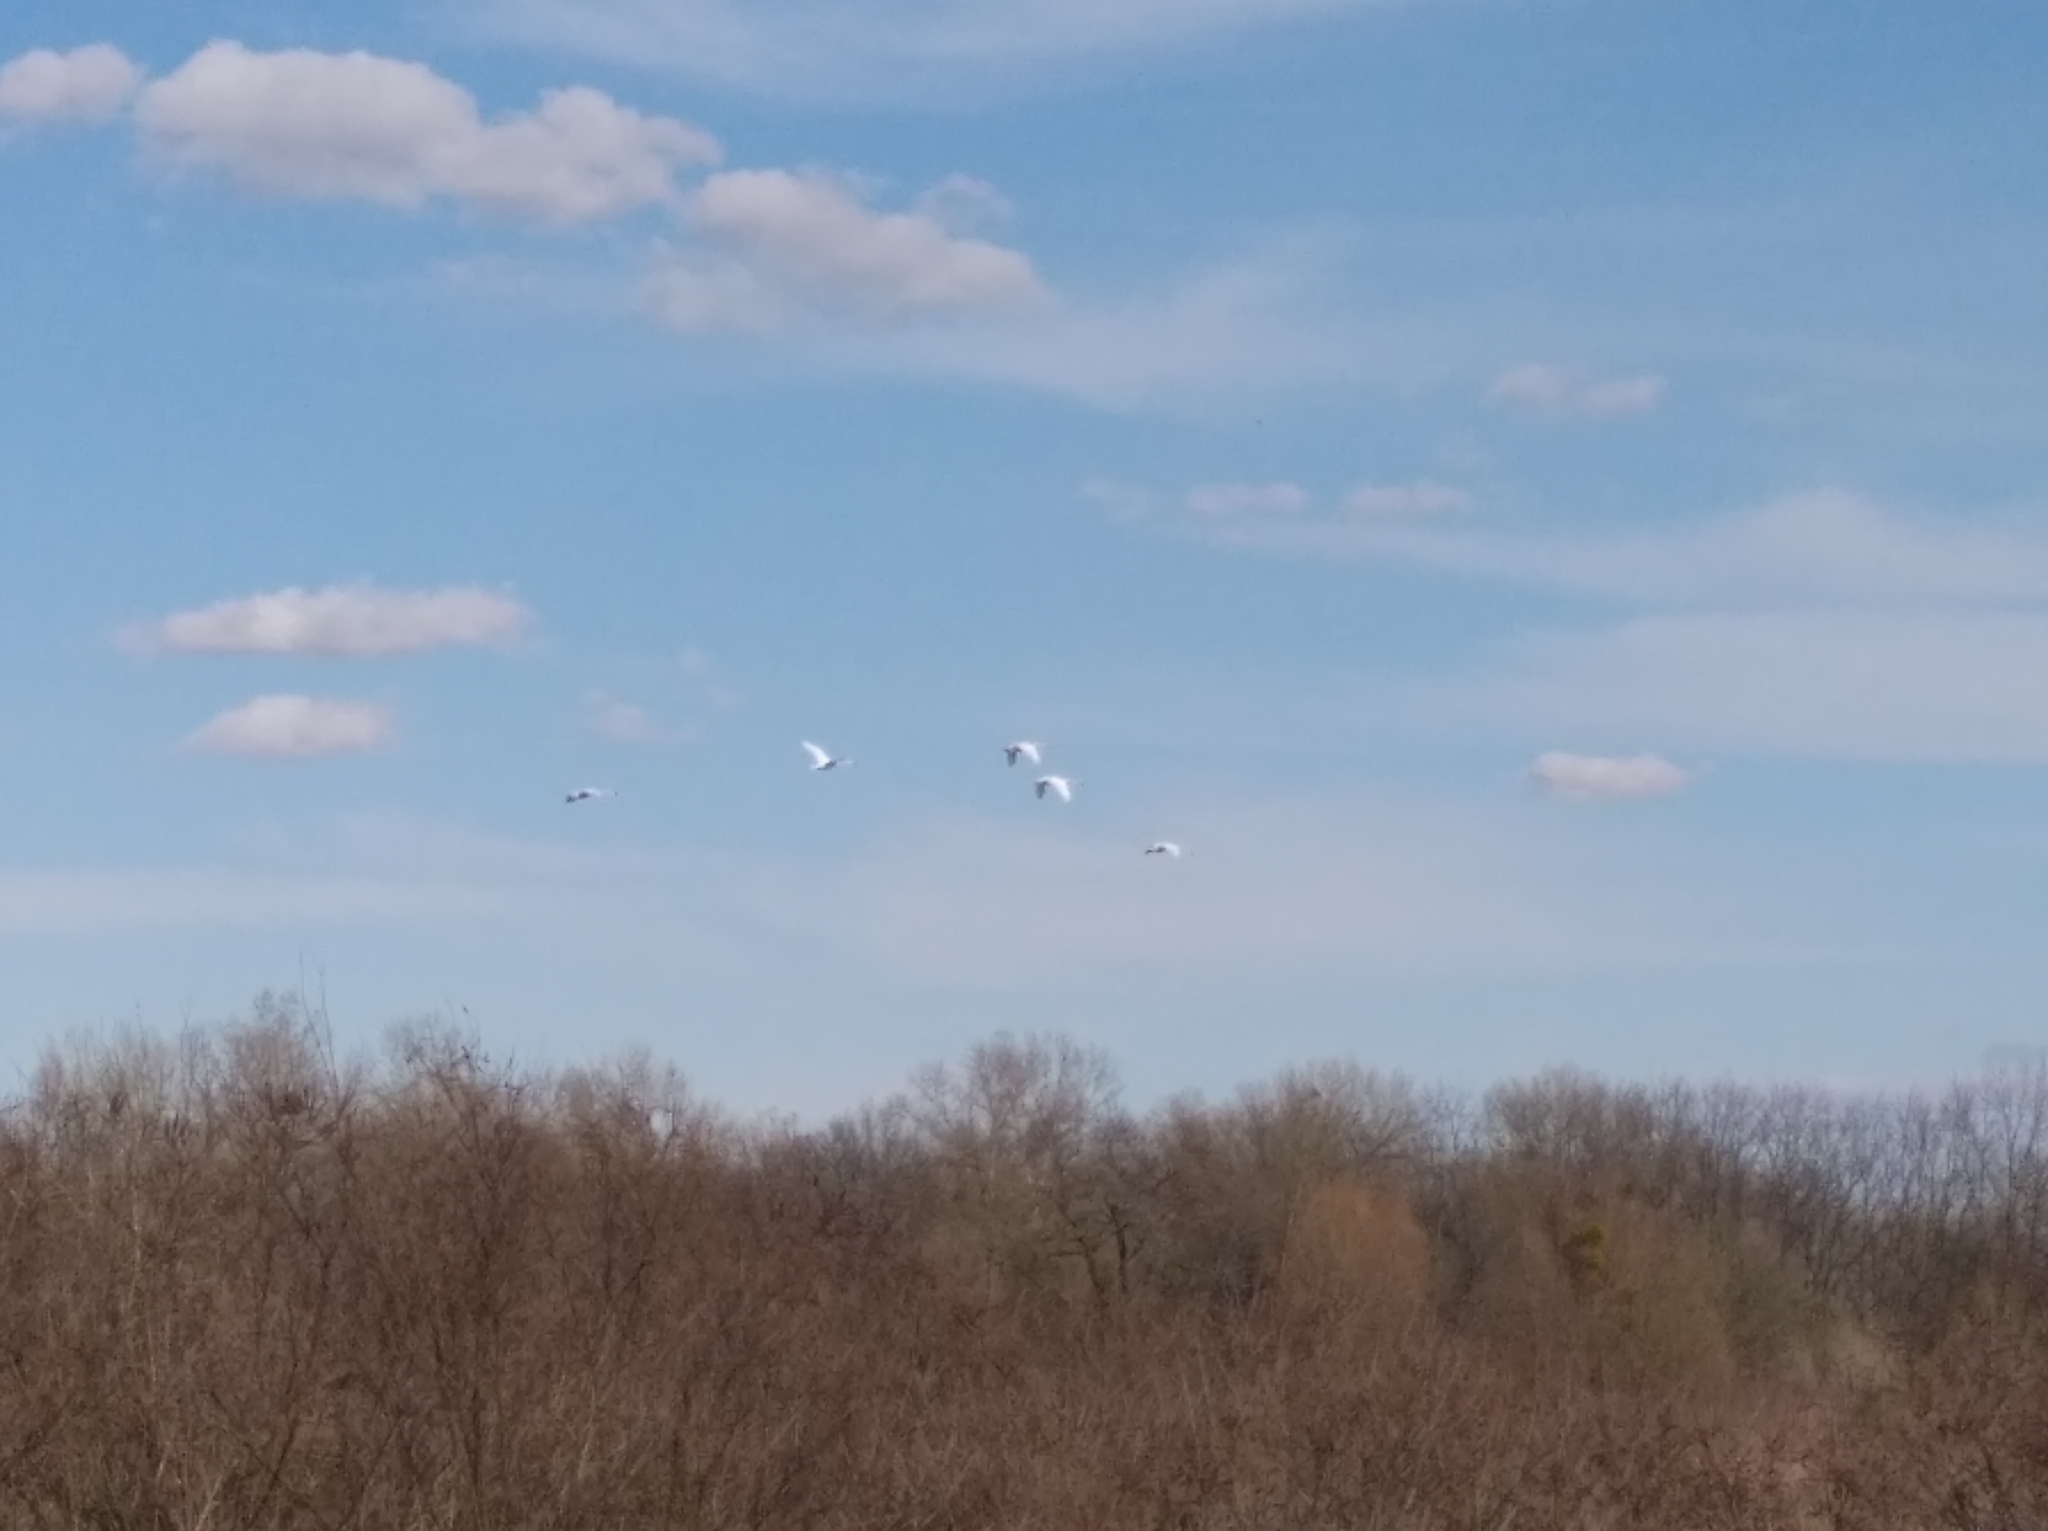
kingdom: Animalia
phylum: Chordata
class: Aves
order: Anseriformes
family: Anatidae
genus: Cygnus
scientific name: Cygnus olor
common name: Mute swan
